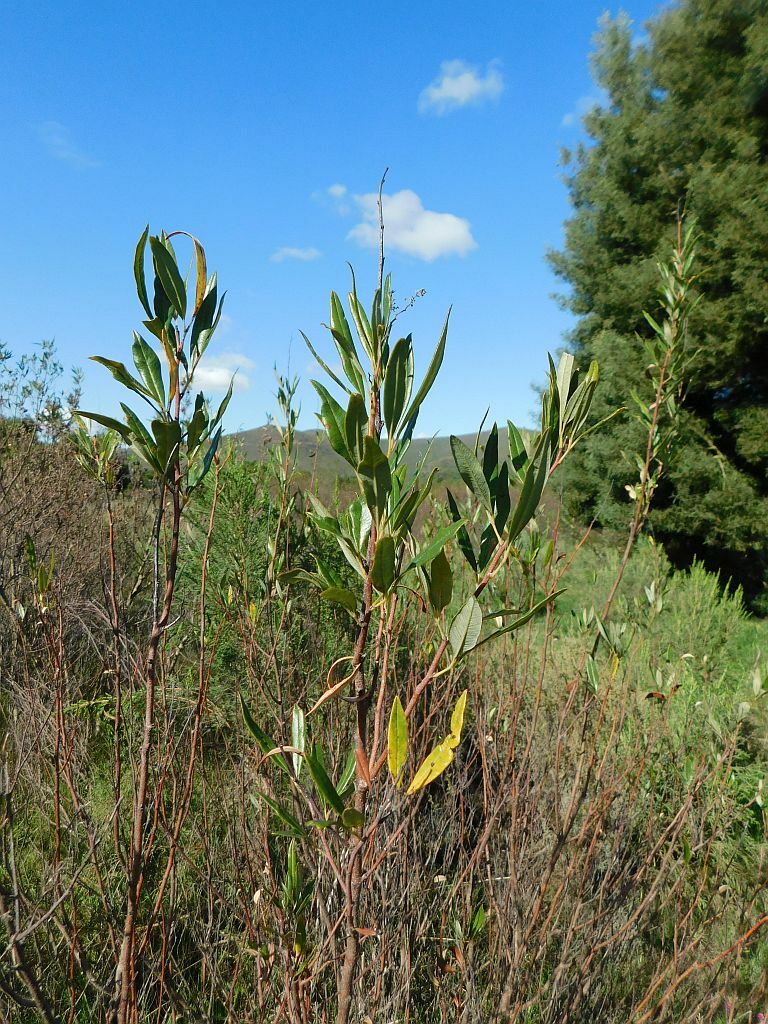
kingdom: Plantae
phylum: Tracheophyta
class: Magnoliopsida
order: Sapindales
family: Anacardiaceae
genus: Searsia
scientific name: Searsia angustifolia
